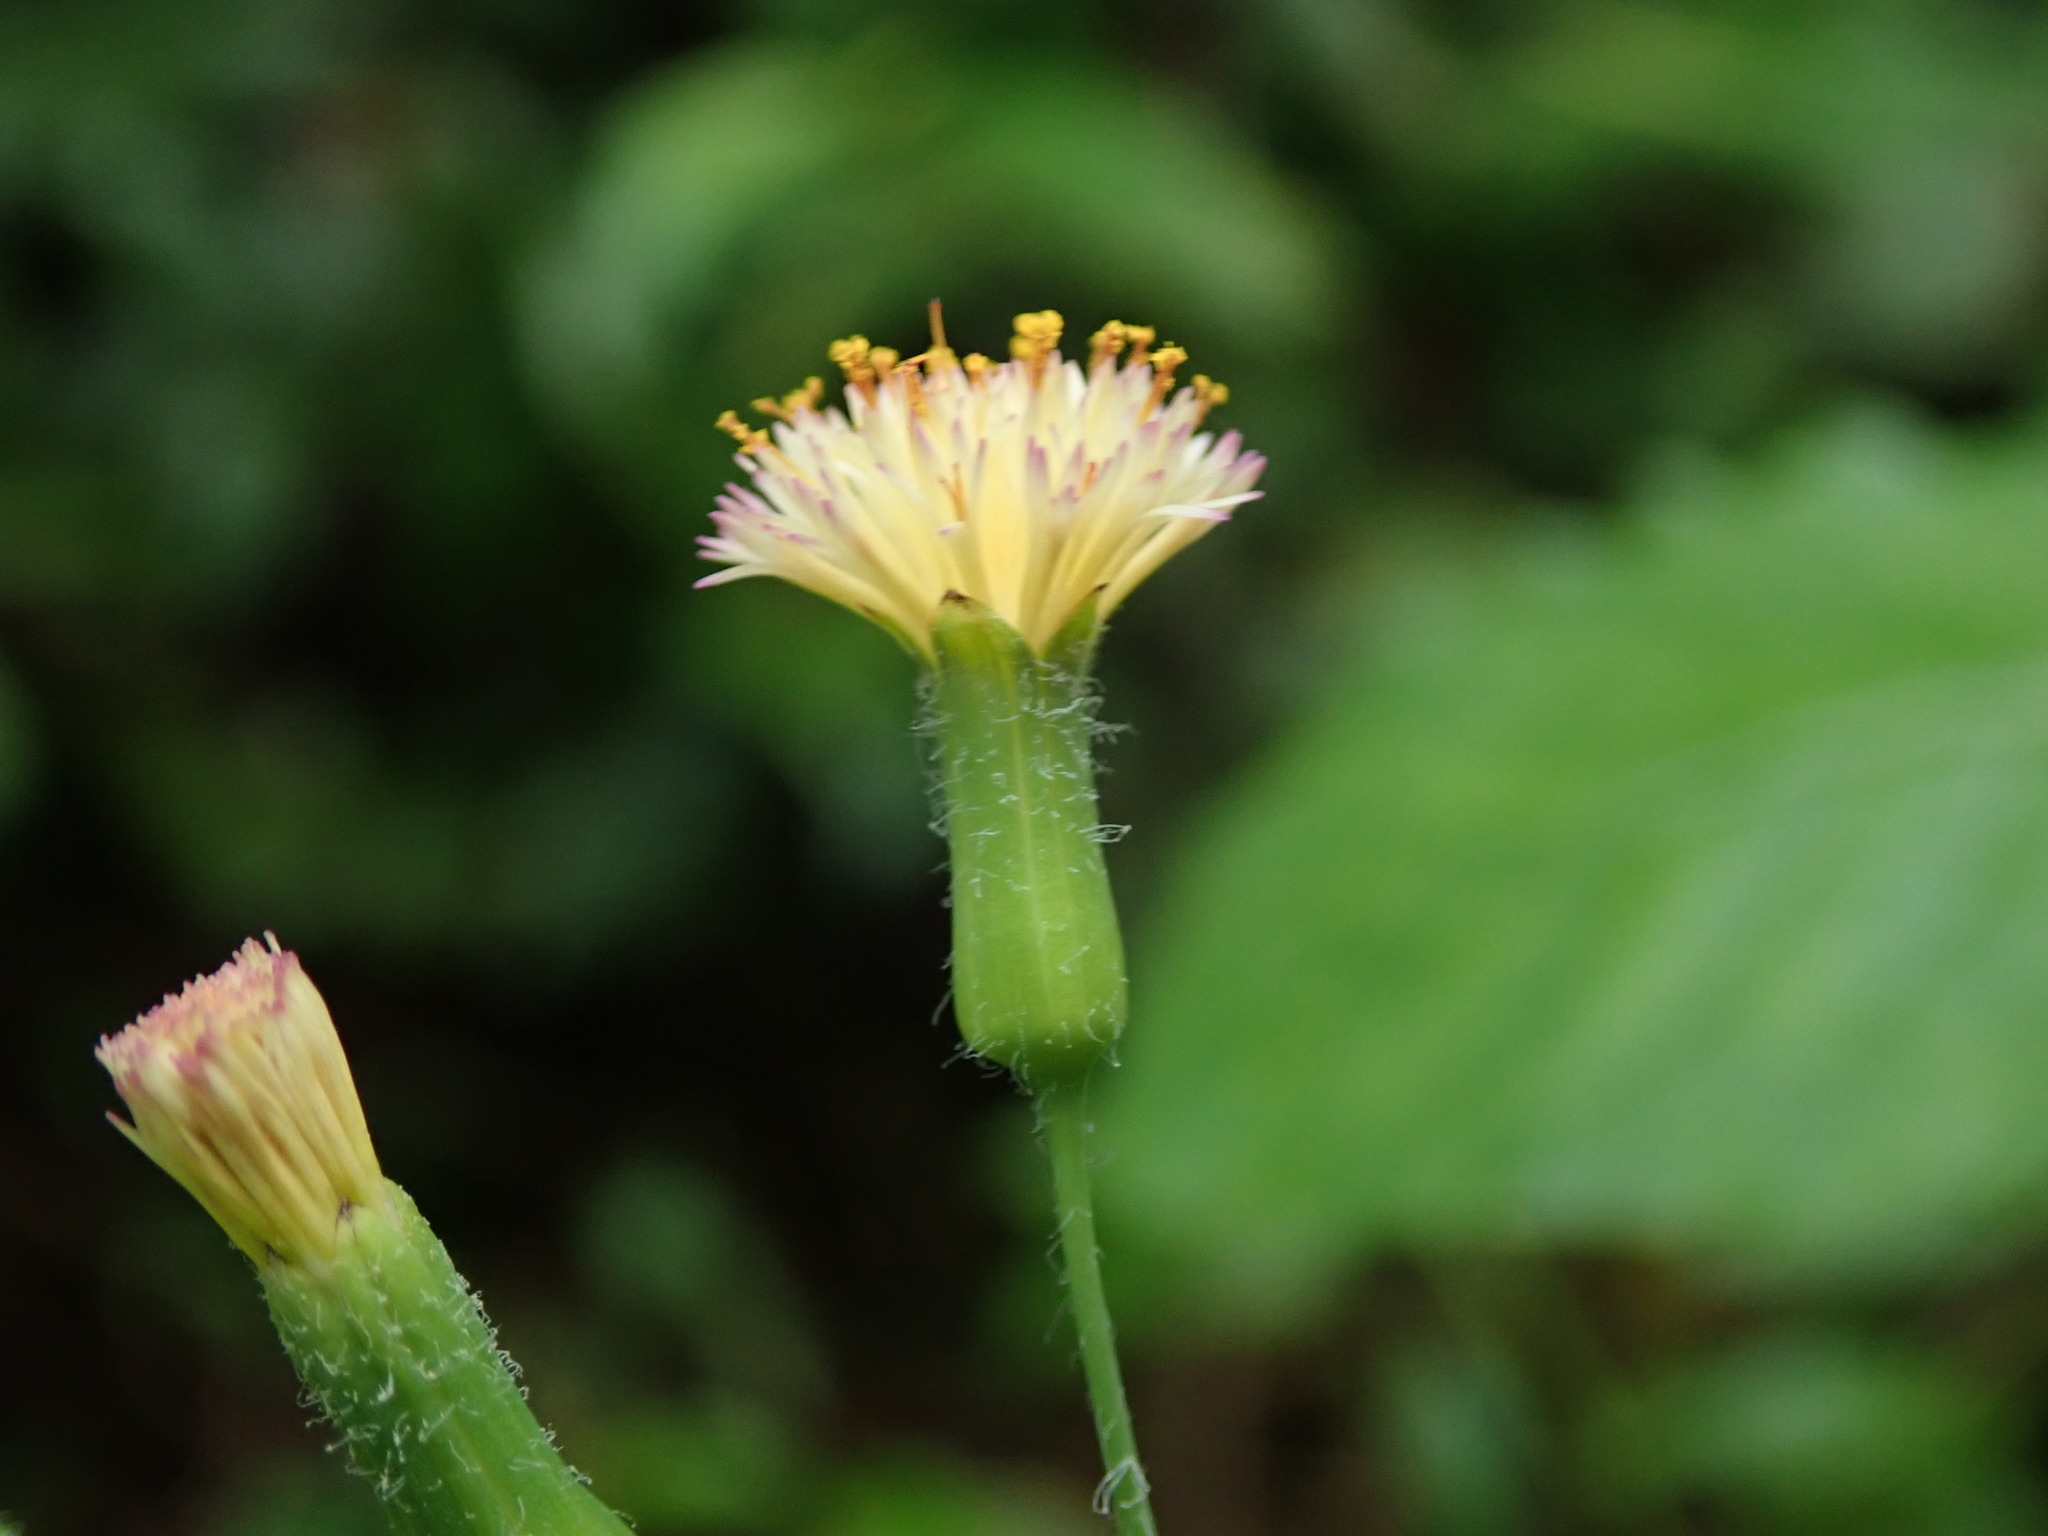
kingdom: Plantae
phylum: Tracheophyta
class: Magnoliopsida
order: Asterales
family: Asteraceae
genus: Emilia
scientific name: Emilia praetermissa
